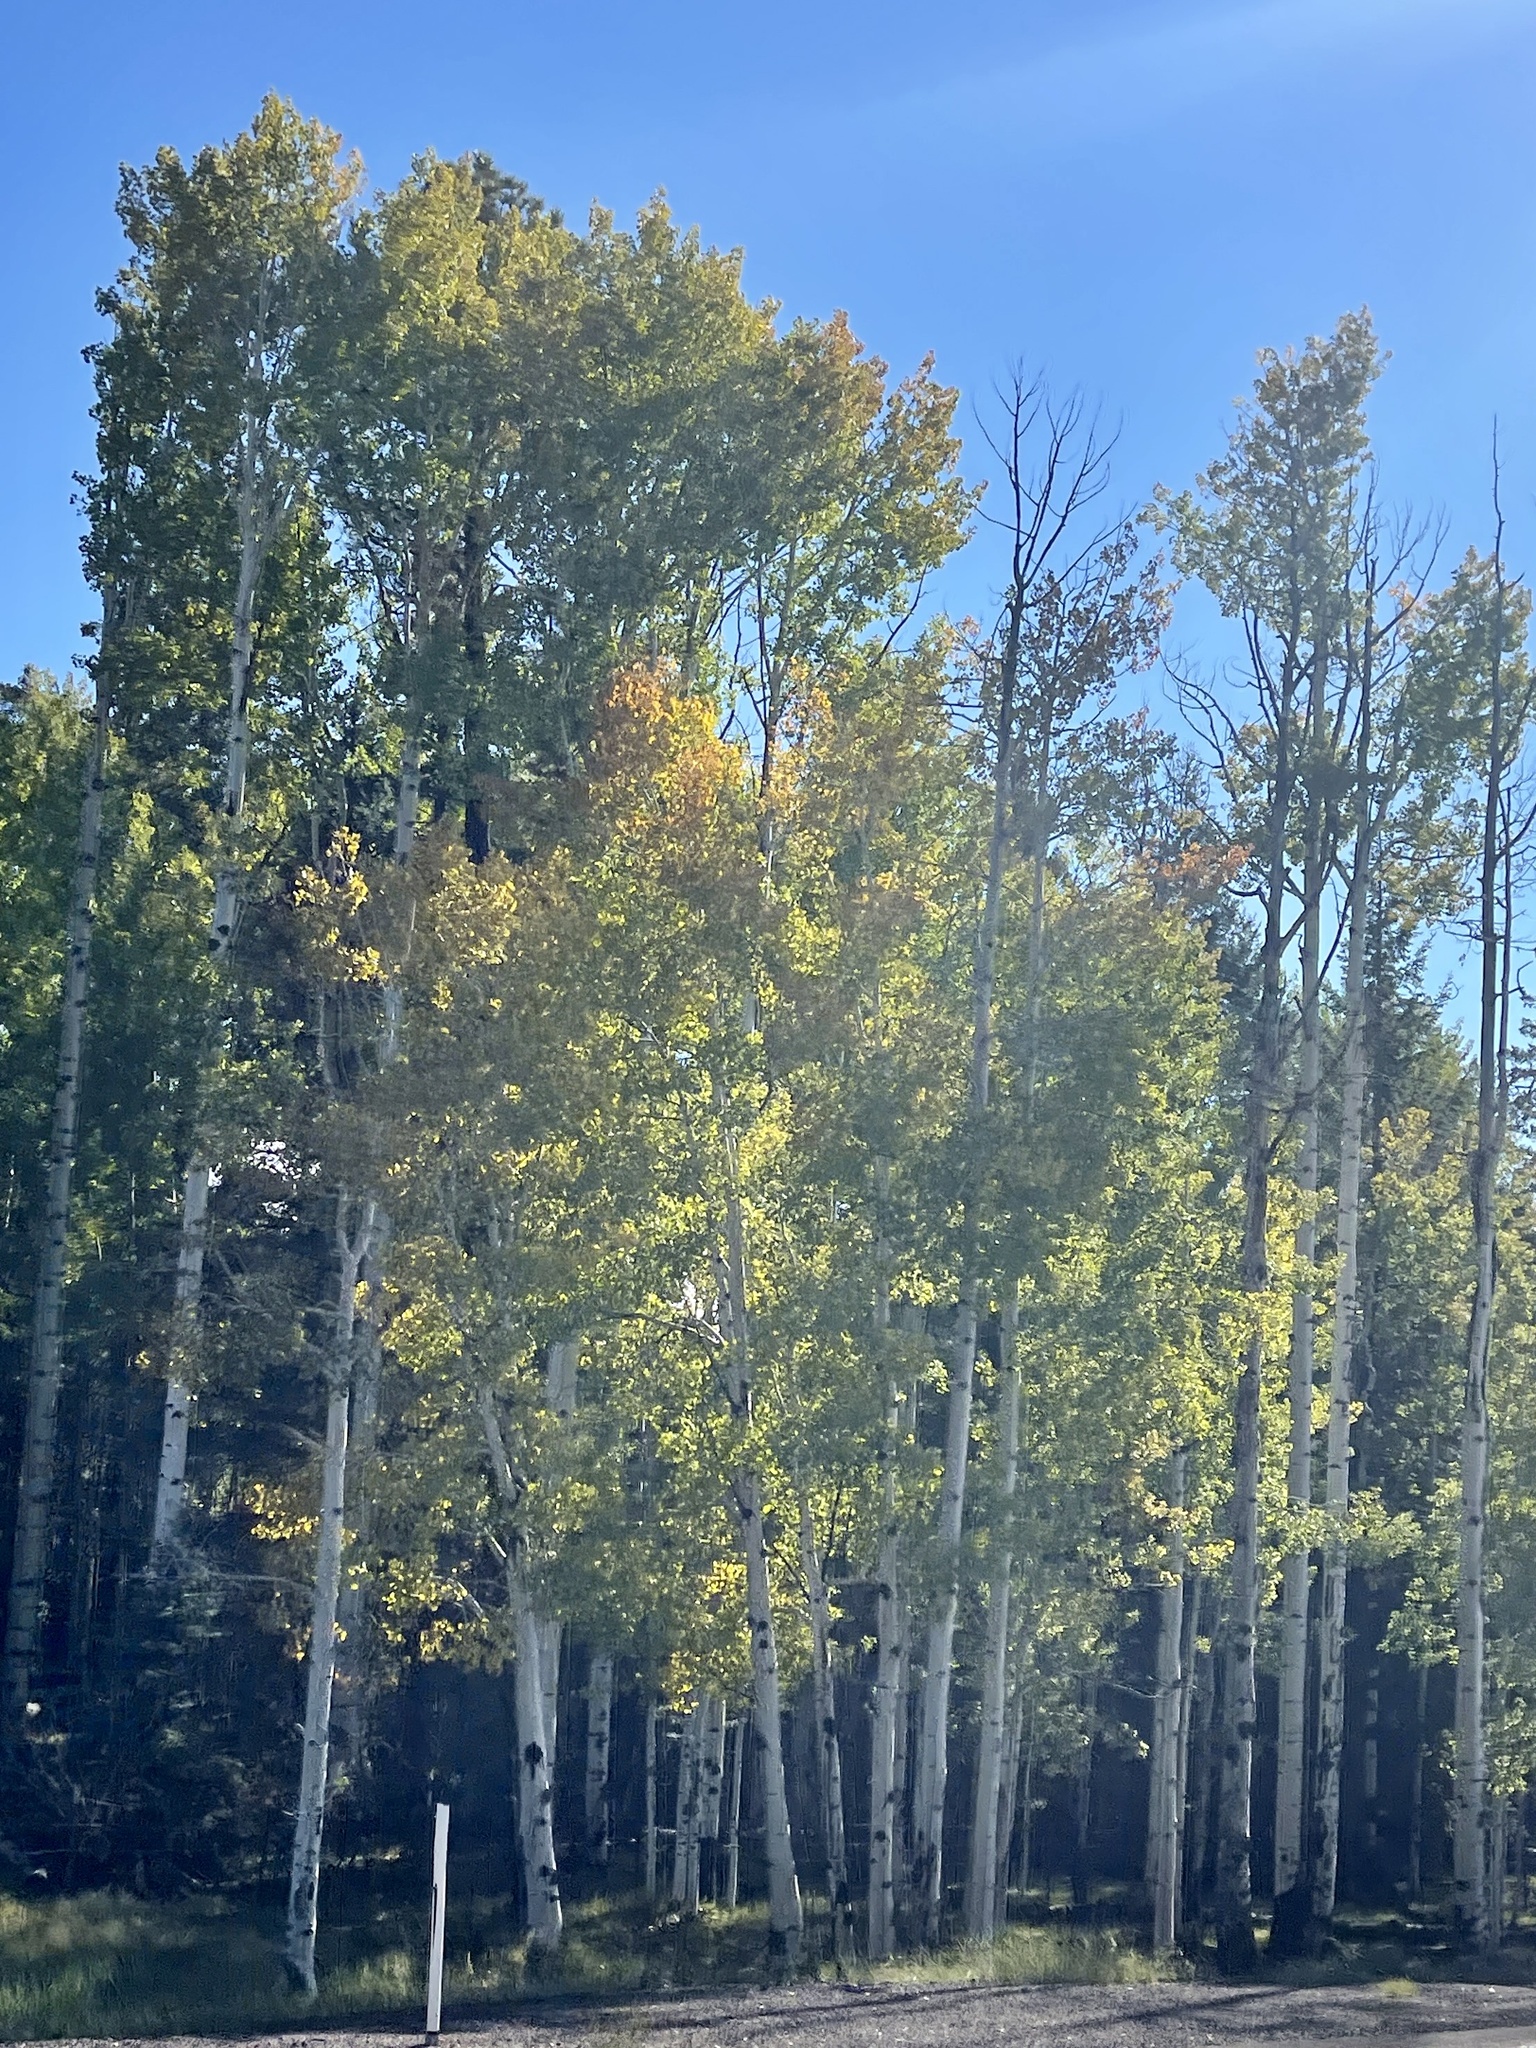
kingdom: Plantae
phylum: Tracheophyta
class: Magnoliopsida
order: Malpighiales
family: Salicaceae
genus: Populus
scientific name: Populus tremuloides
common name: Quaking aspen
